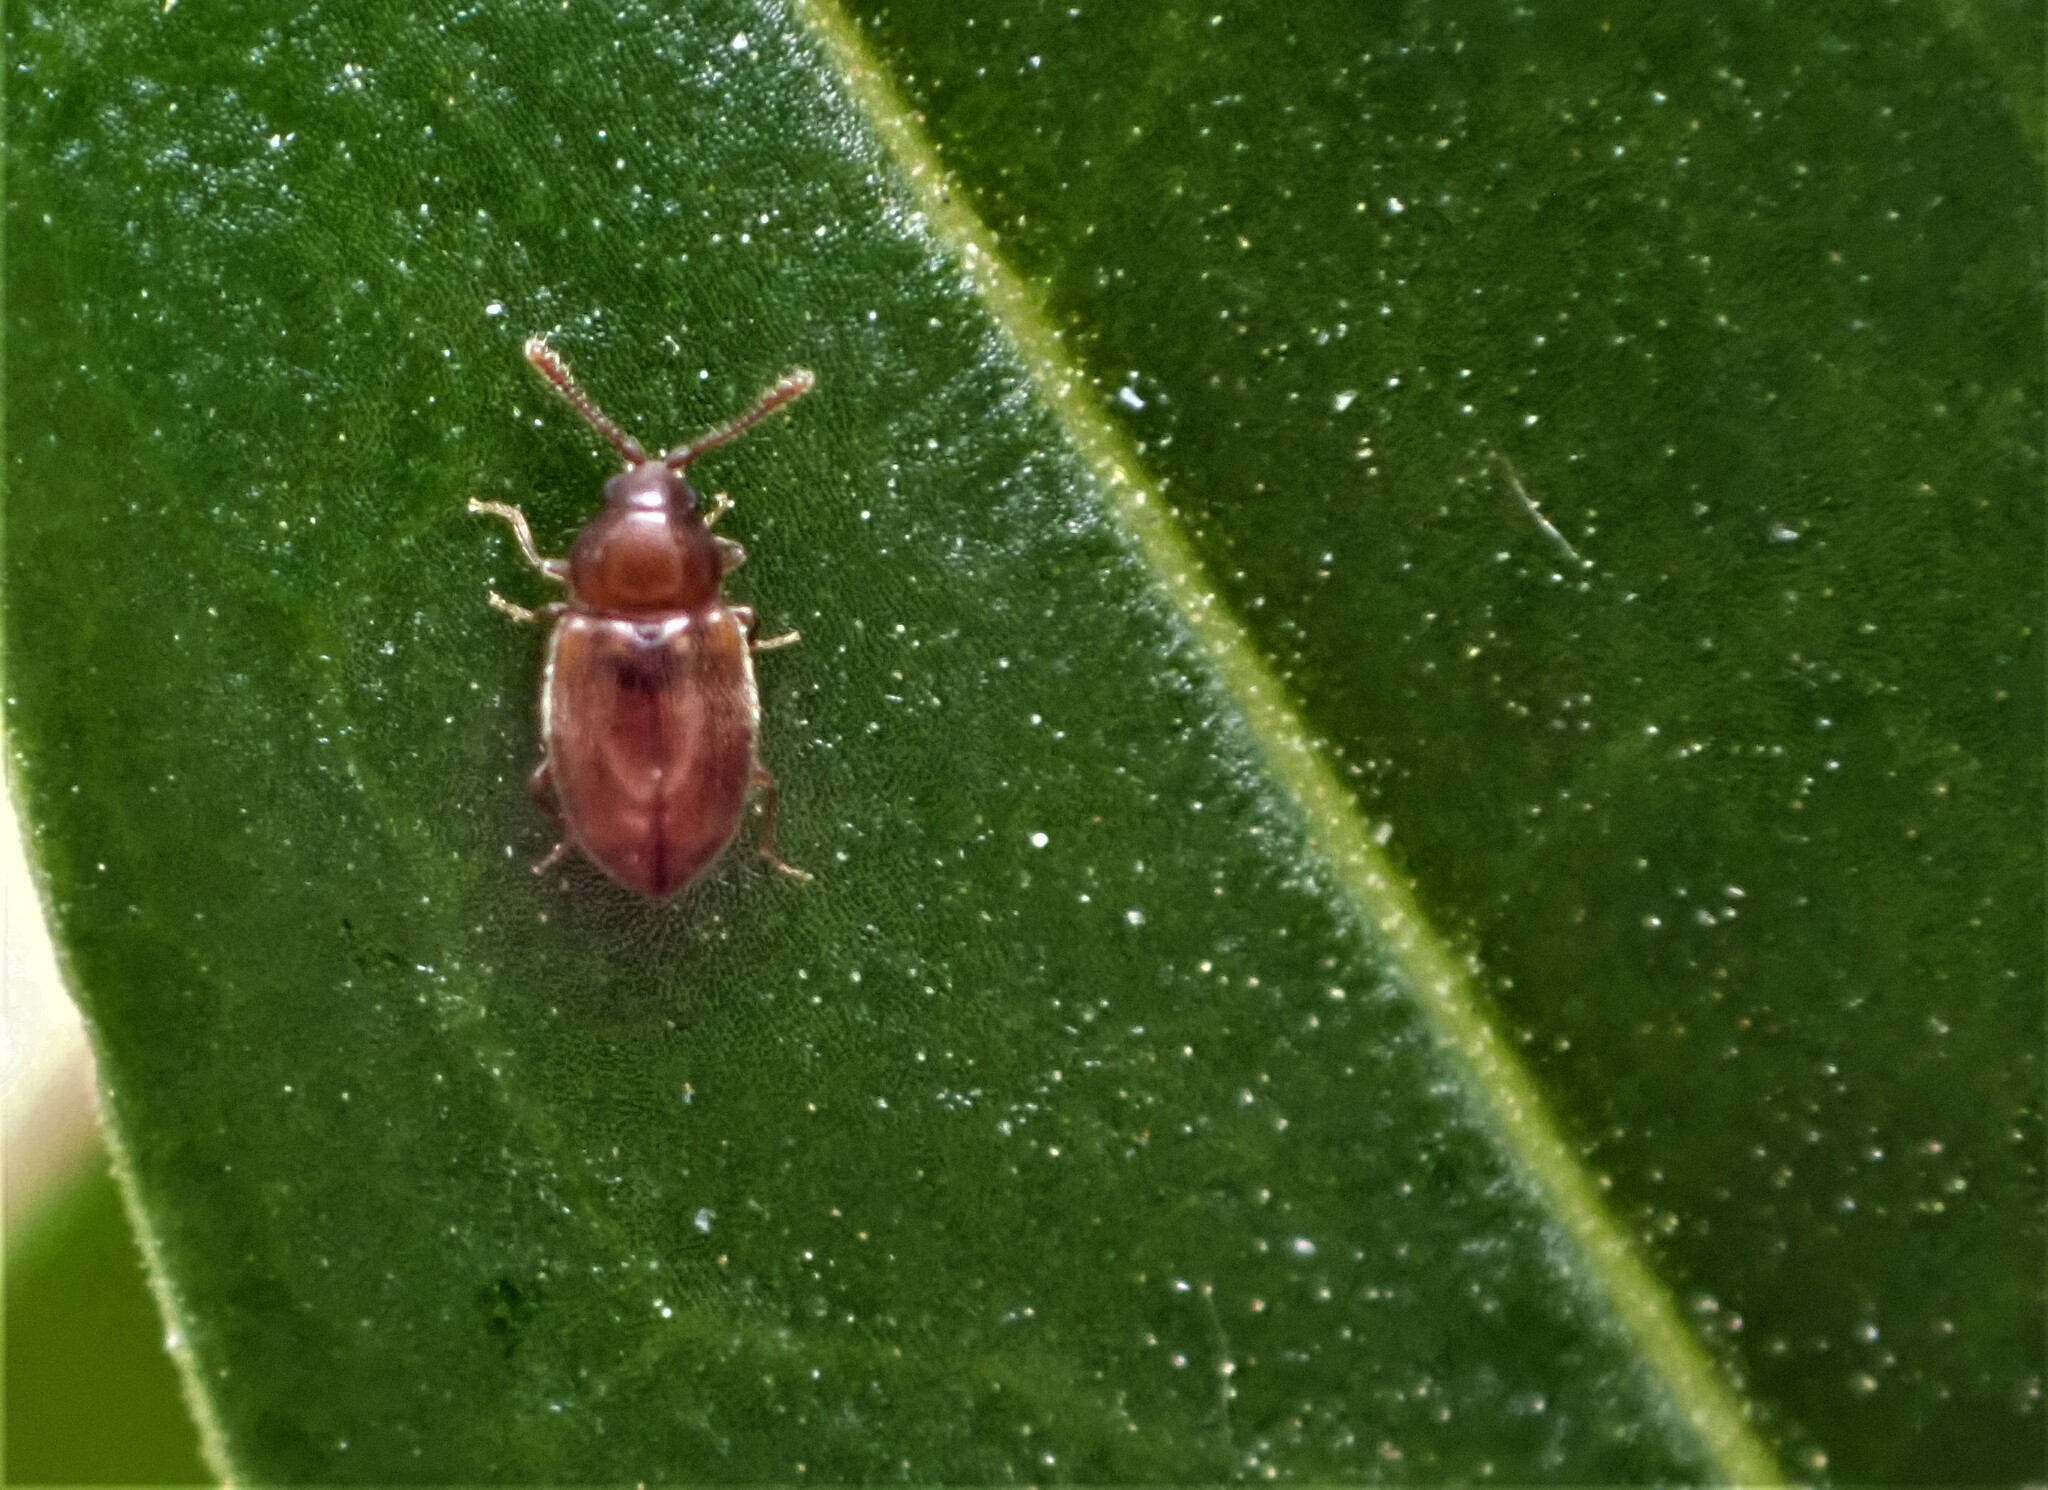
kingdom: Animalia
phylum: Arthropoda
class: Insecta
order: Coleoptera
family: Cryptophagidae
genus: Atomaria
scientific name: Atomaria lewisi
